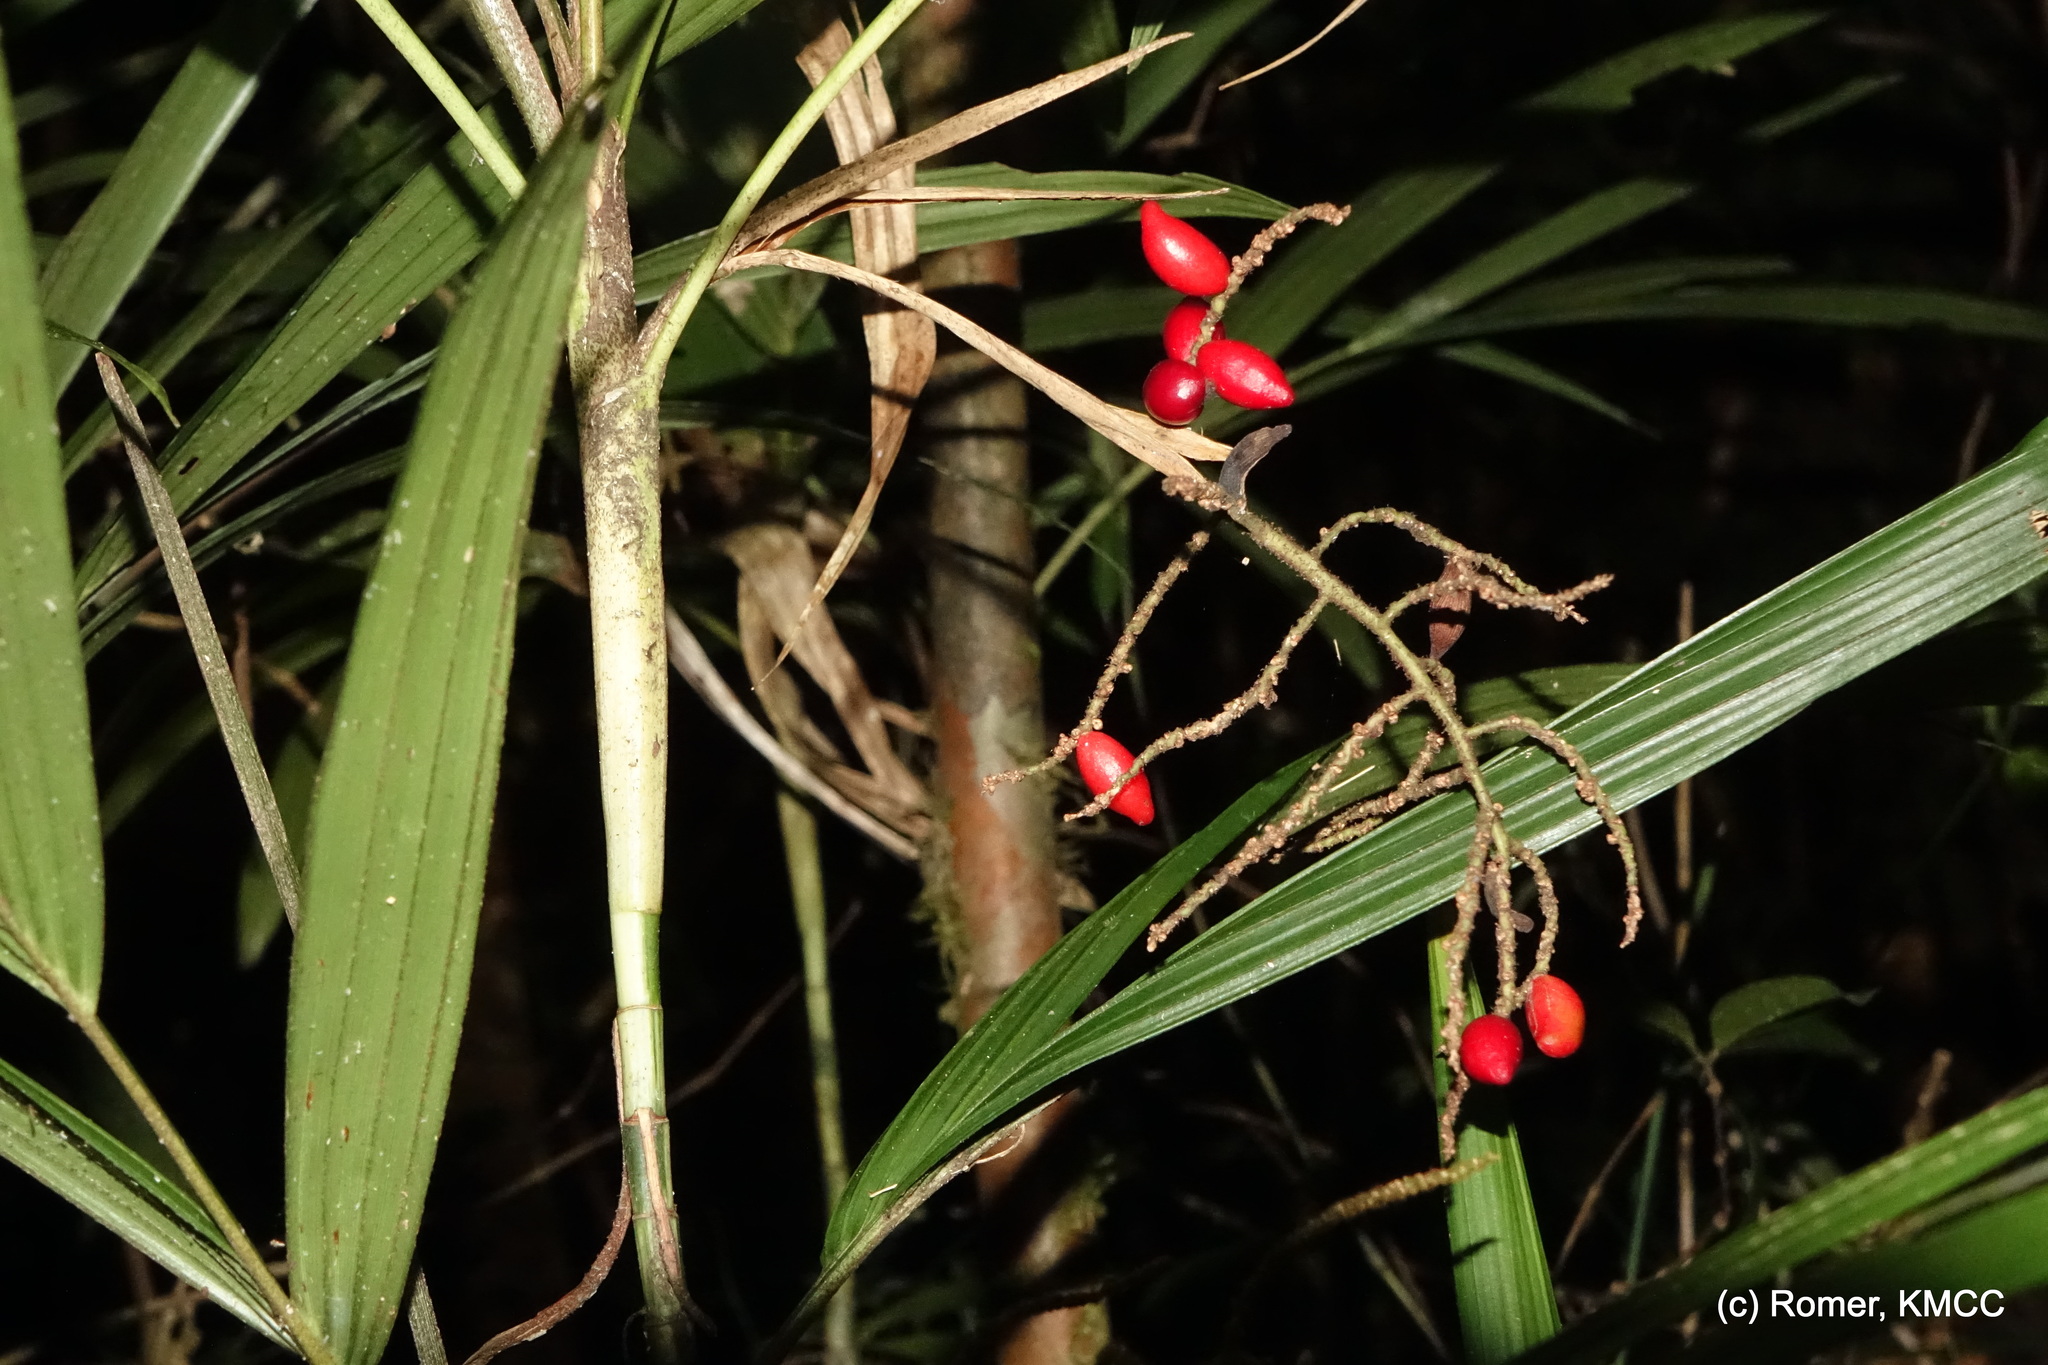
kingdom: Plantae
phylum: Tracheophyta
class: Liliopsida
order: Arecales
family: Arecaceae
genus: Dypsis
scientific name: Dypsis thermarum
